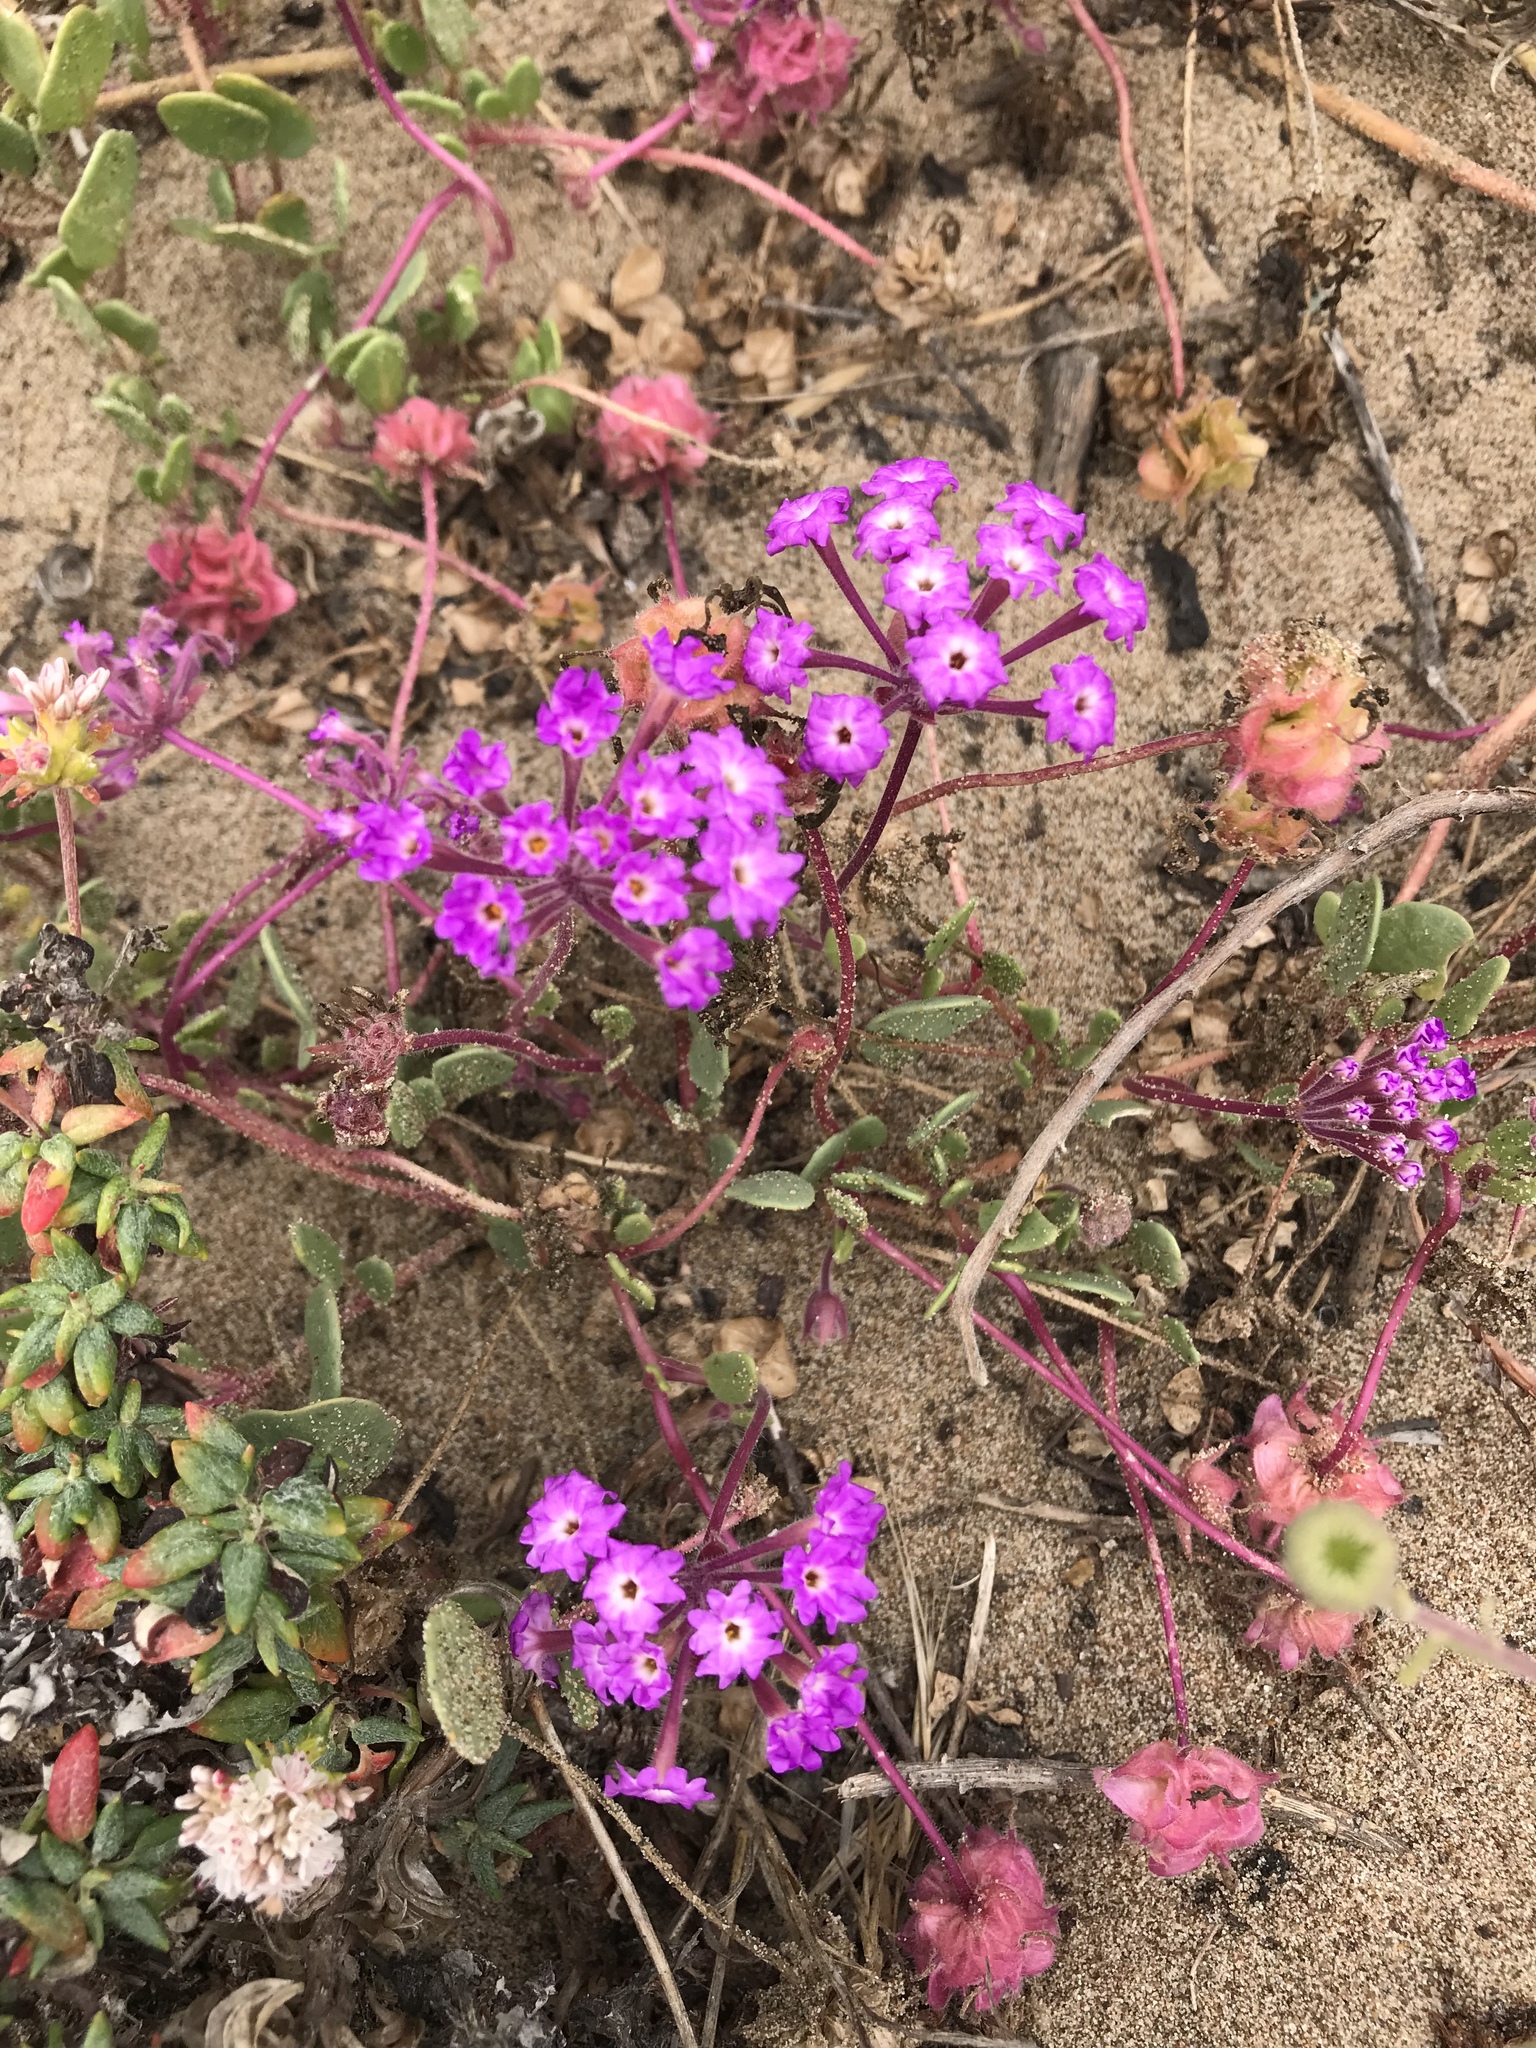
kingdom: Plantae
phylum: Tracheophyta
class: Magnoliopsida
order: Caryophyllales
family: Nyctaginaceae
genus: Abronia
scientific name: Abronia umbellata
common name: Sand-verbena
